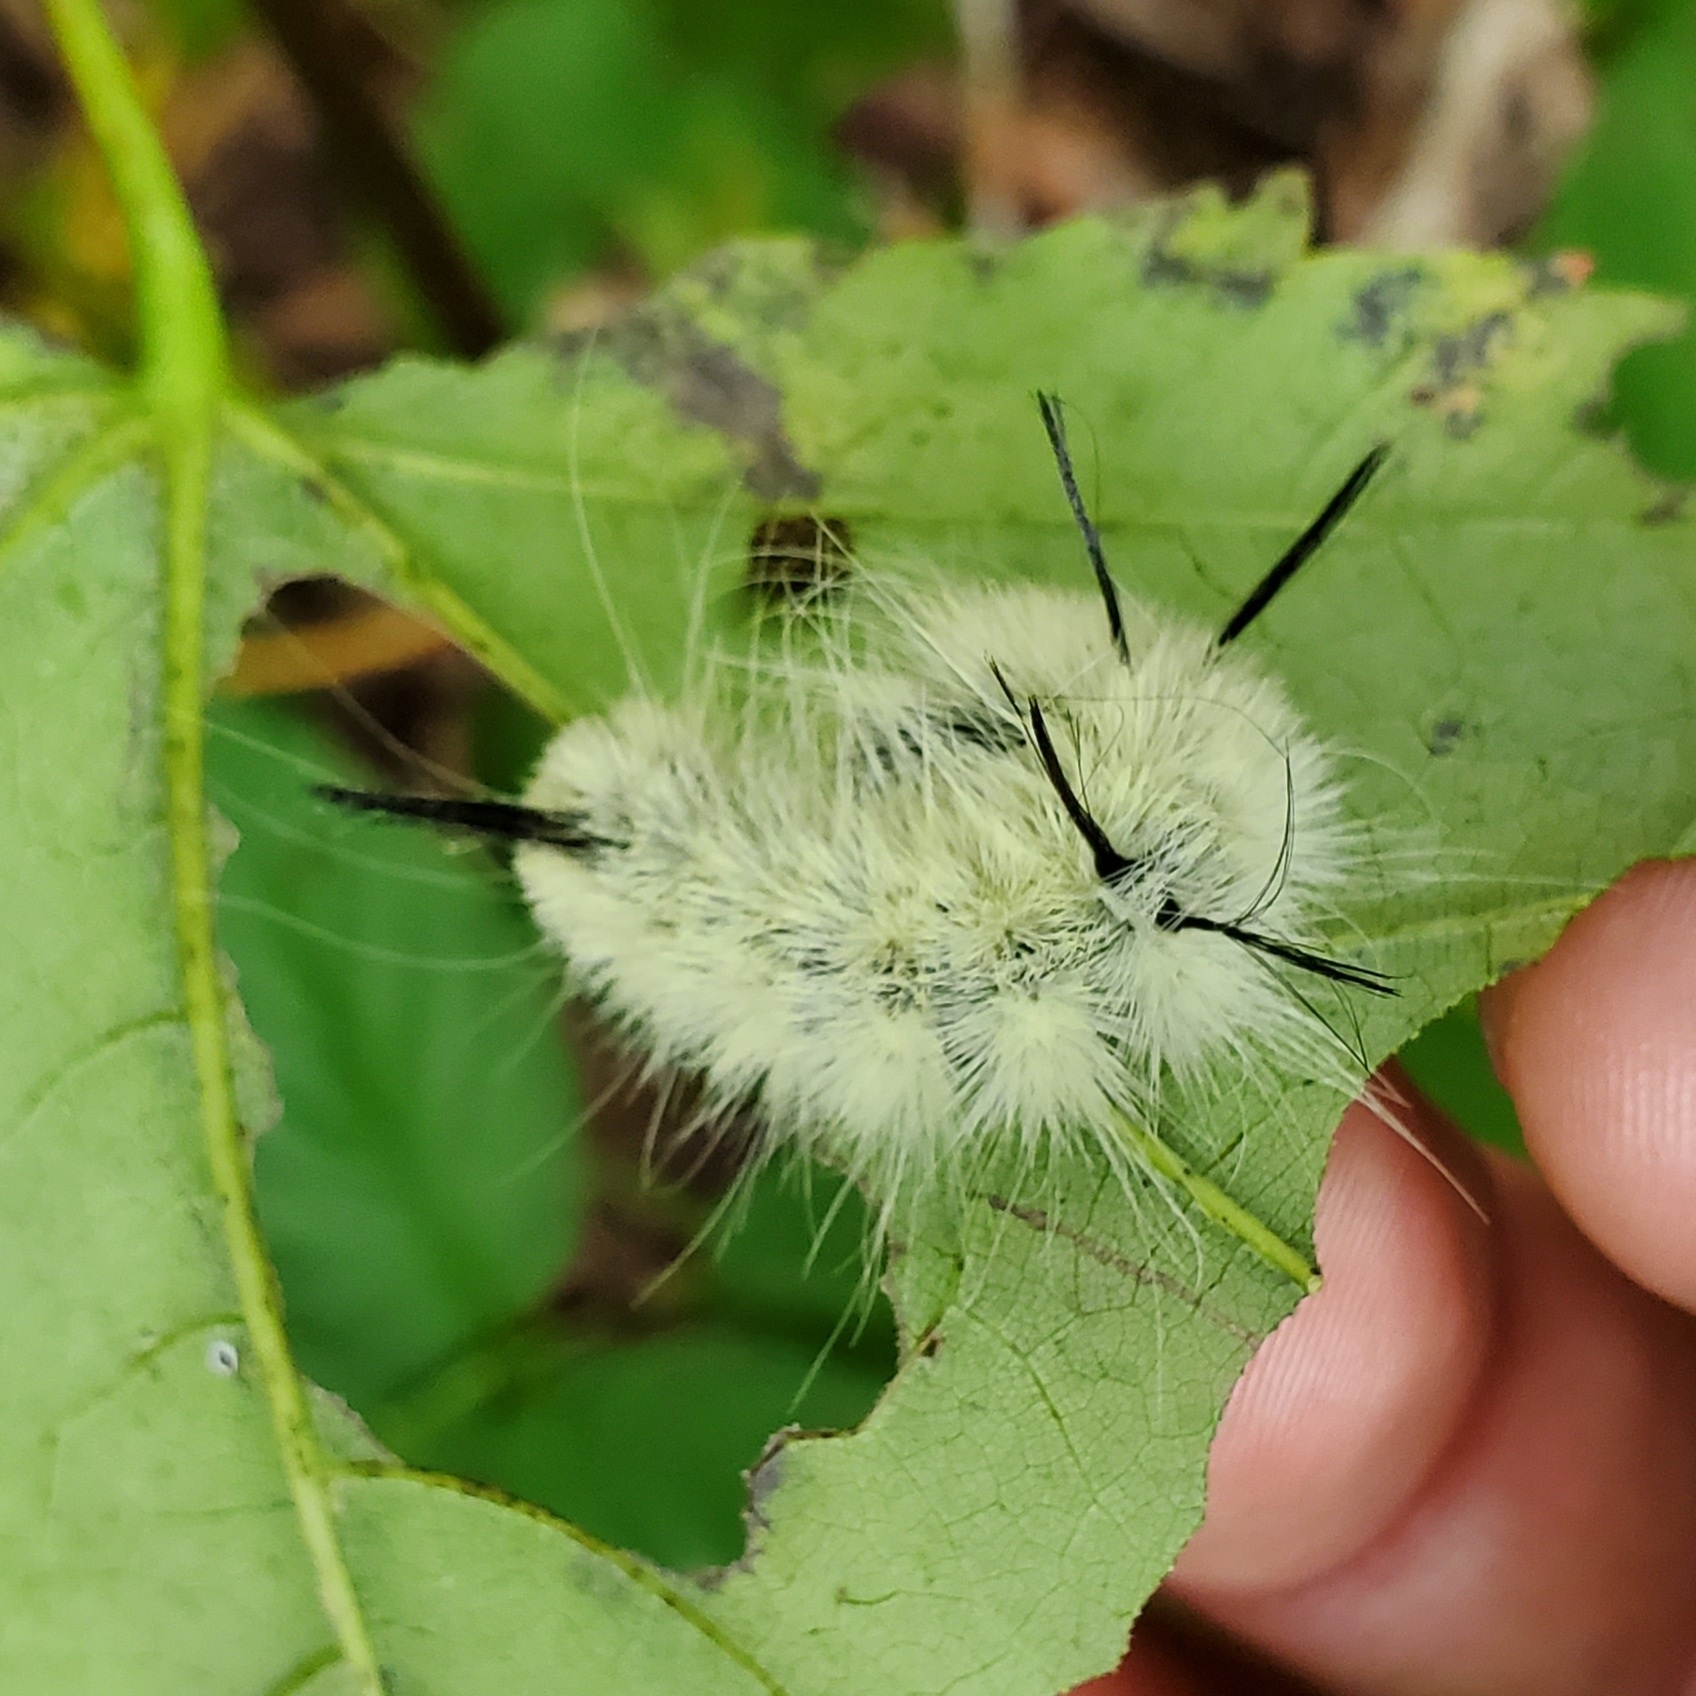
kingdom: Animalia
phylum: Arthropoda
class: Insecta
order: Lepidoptera
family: Noctuidae
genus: Acronicta
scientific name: Acronicta americana
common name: American dagger
